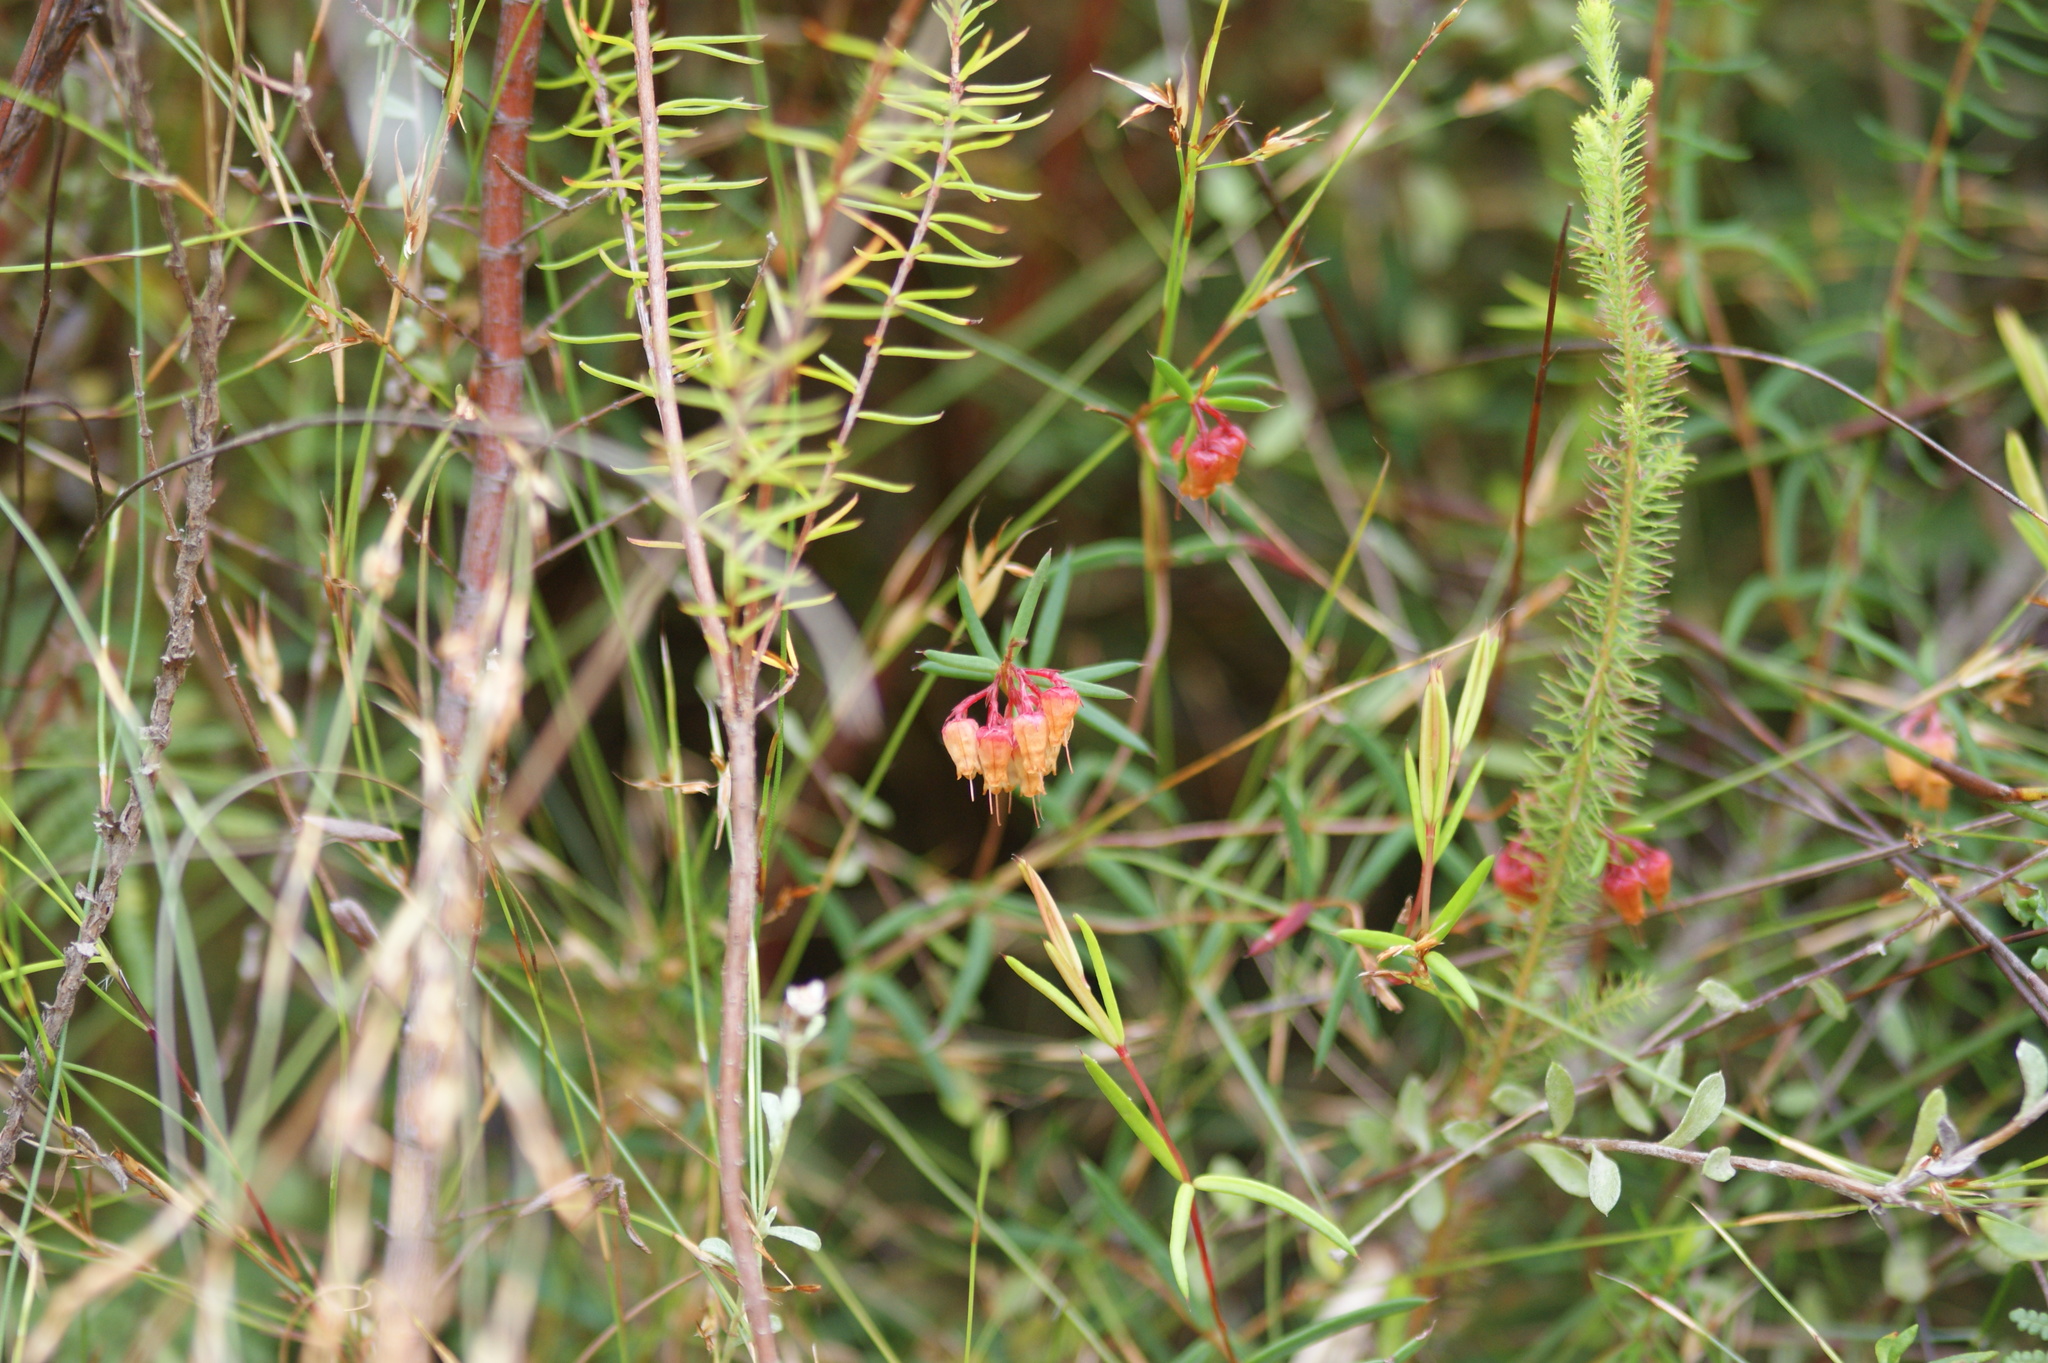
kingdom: Plantae
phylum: Tracheophyta
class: Magnoliopsida
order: Ericales
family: Ericaceae
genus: Erica
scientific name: Erica omninoglabra
